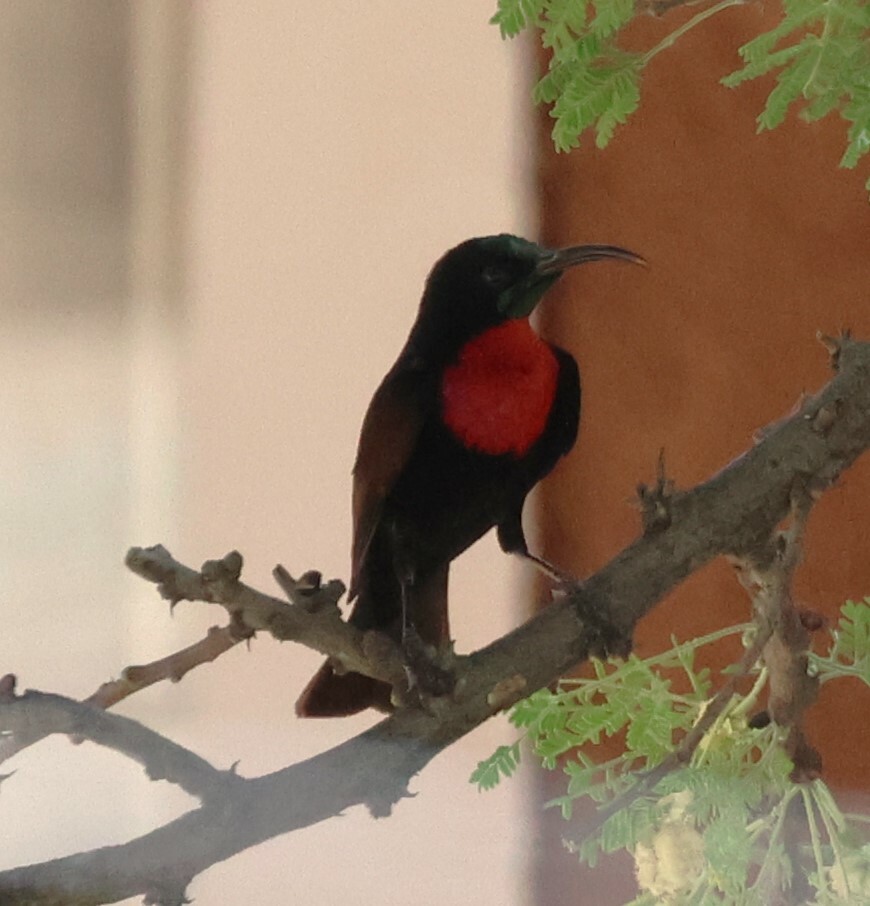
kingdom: Animalia
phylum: Chordata
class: Aves
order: Passeriformes
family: Nectariniidae
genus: Chalcomitra
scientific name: Chalcomitra senegalensis
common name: Scarlet-chested sunbird
